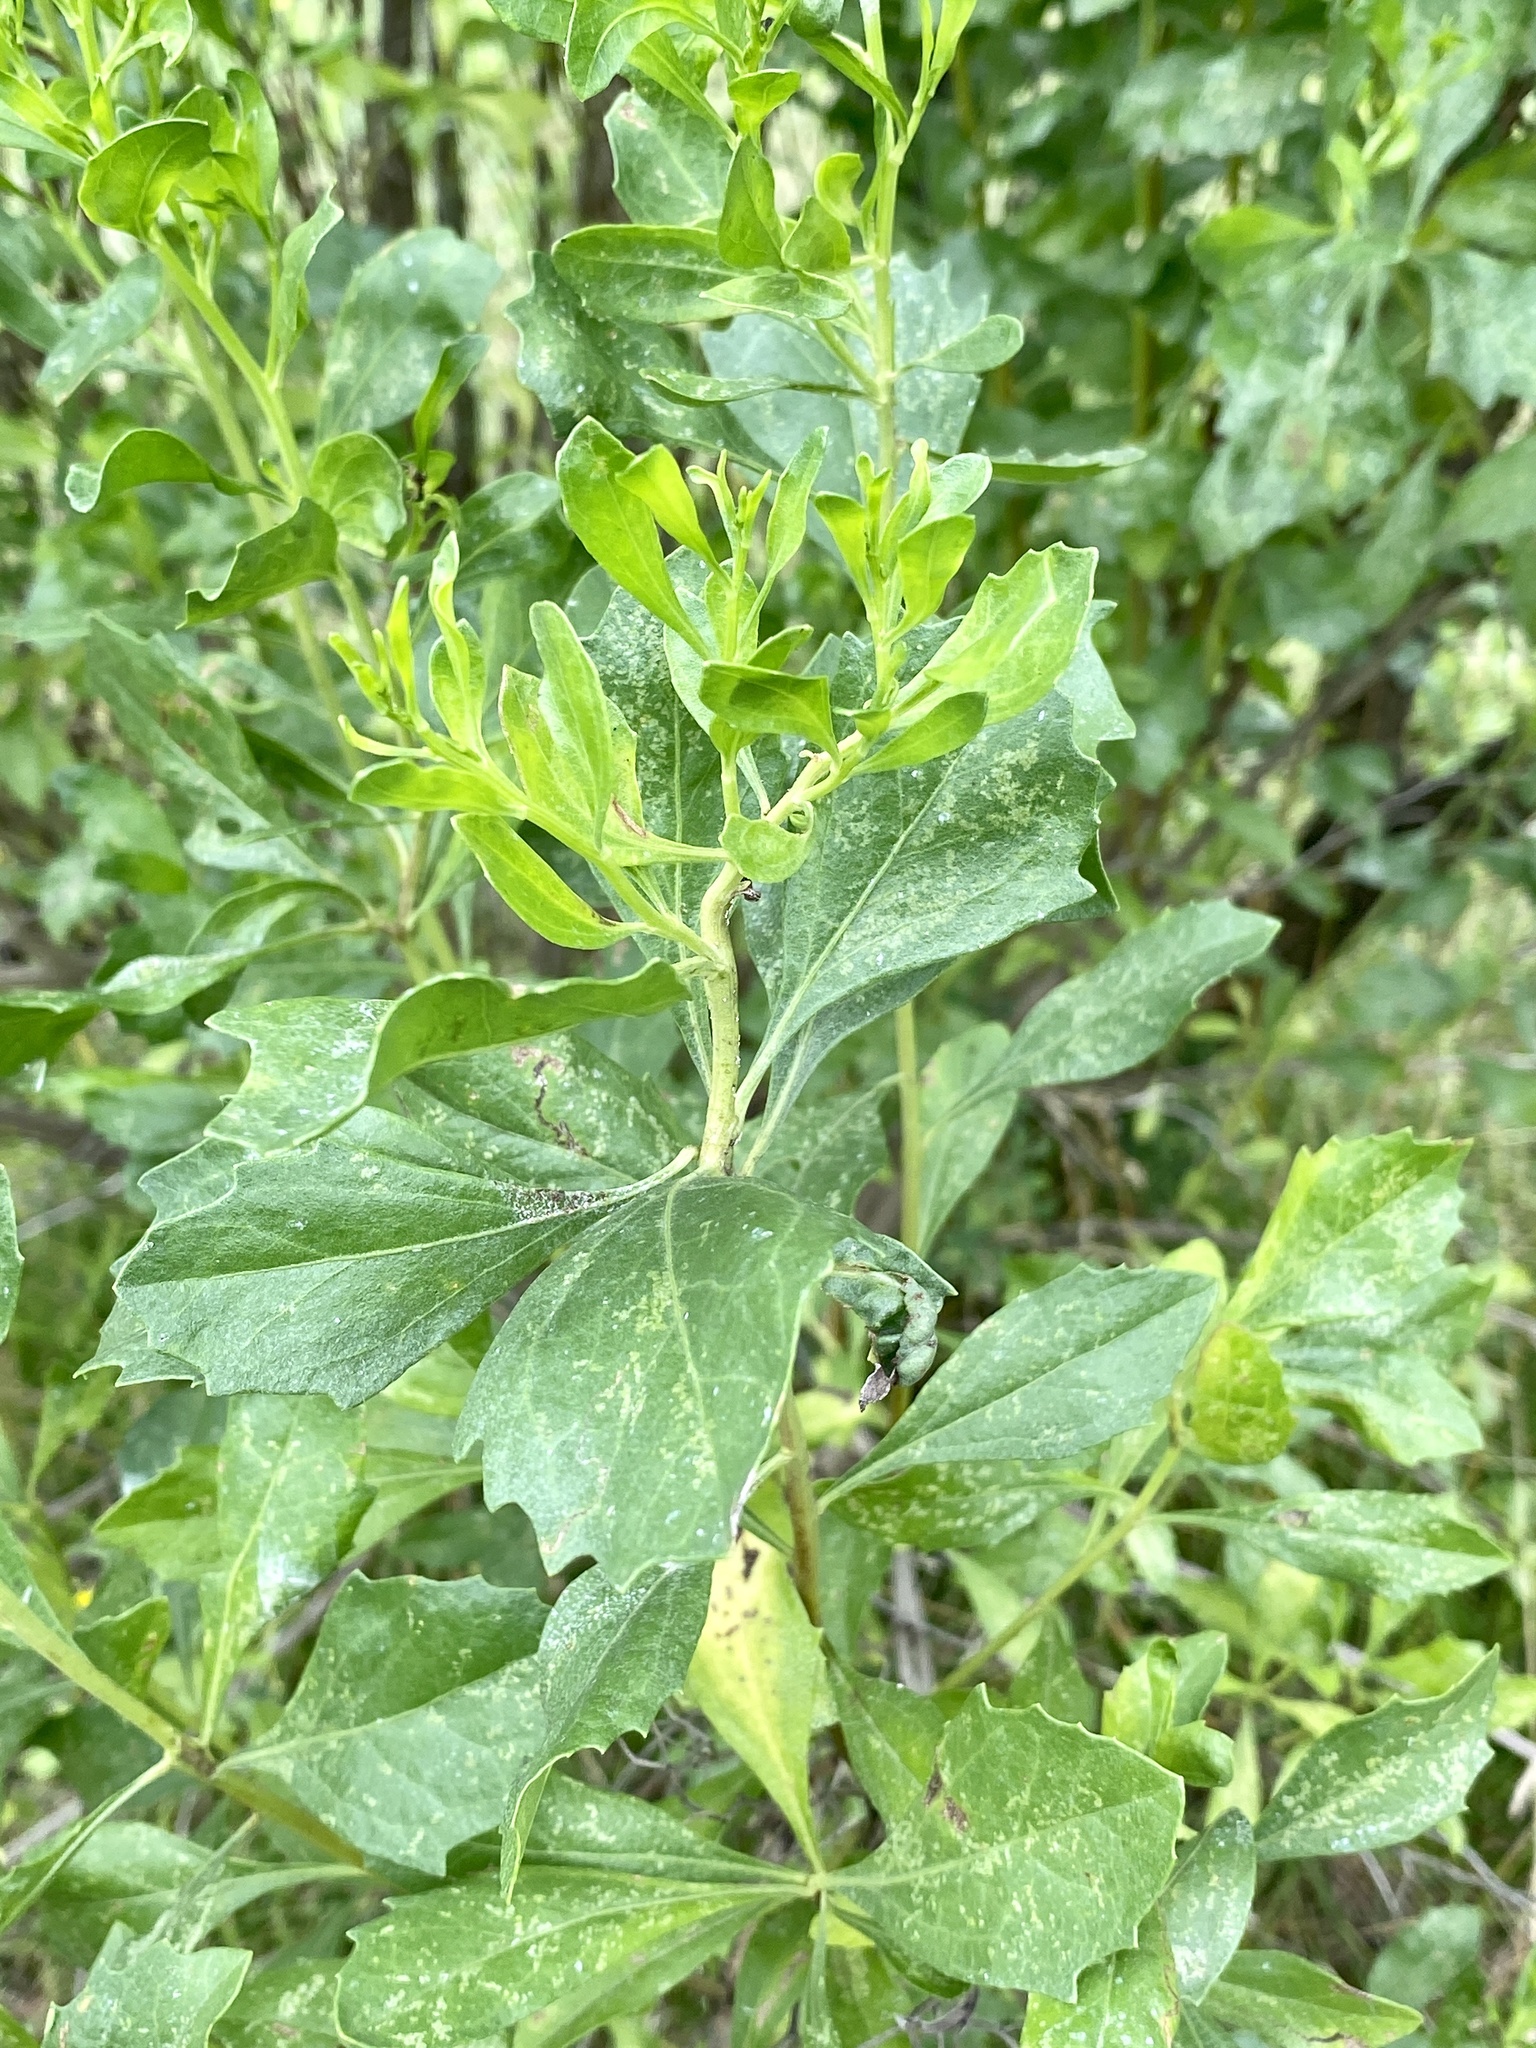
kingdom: Plantae
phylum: Tracheophyta
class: Magnoliopsida
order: Asterales
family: Asteraceae
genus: Baccharis
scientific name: Baccharis halimifolia
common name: Eastern baccharis
